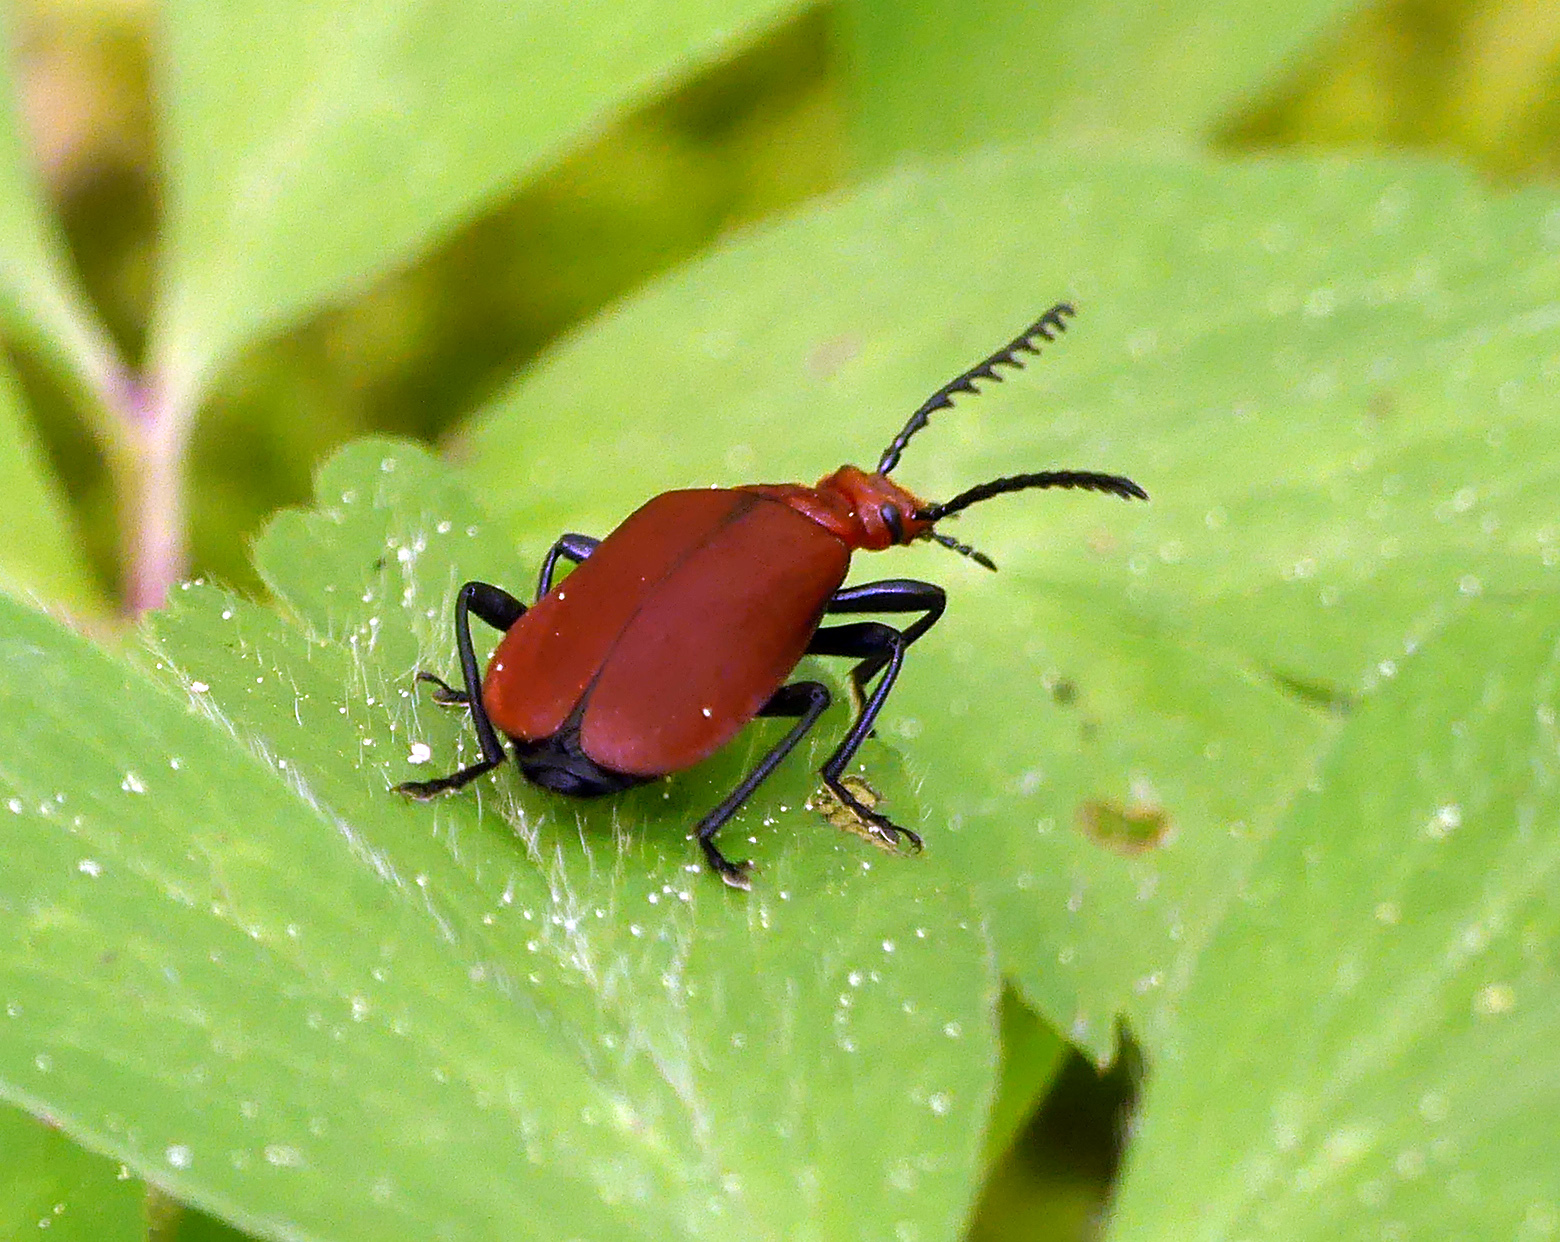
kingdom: Animalia
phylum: Arthropoda
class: Insecta
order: Coleoptera
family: Pyrochroidae
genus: Pyrochroa
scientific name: Pyrochroa serraticornis
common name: Red-headed cardinal beetle
